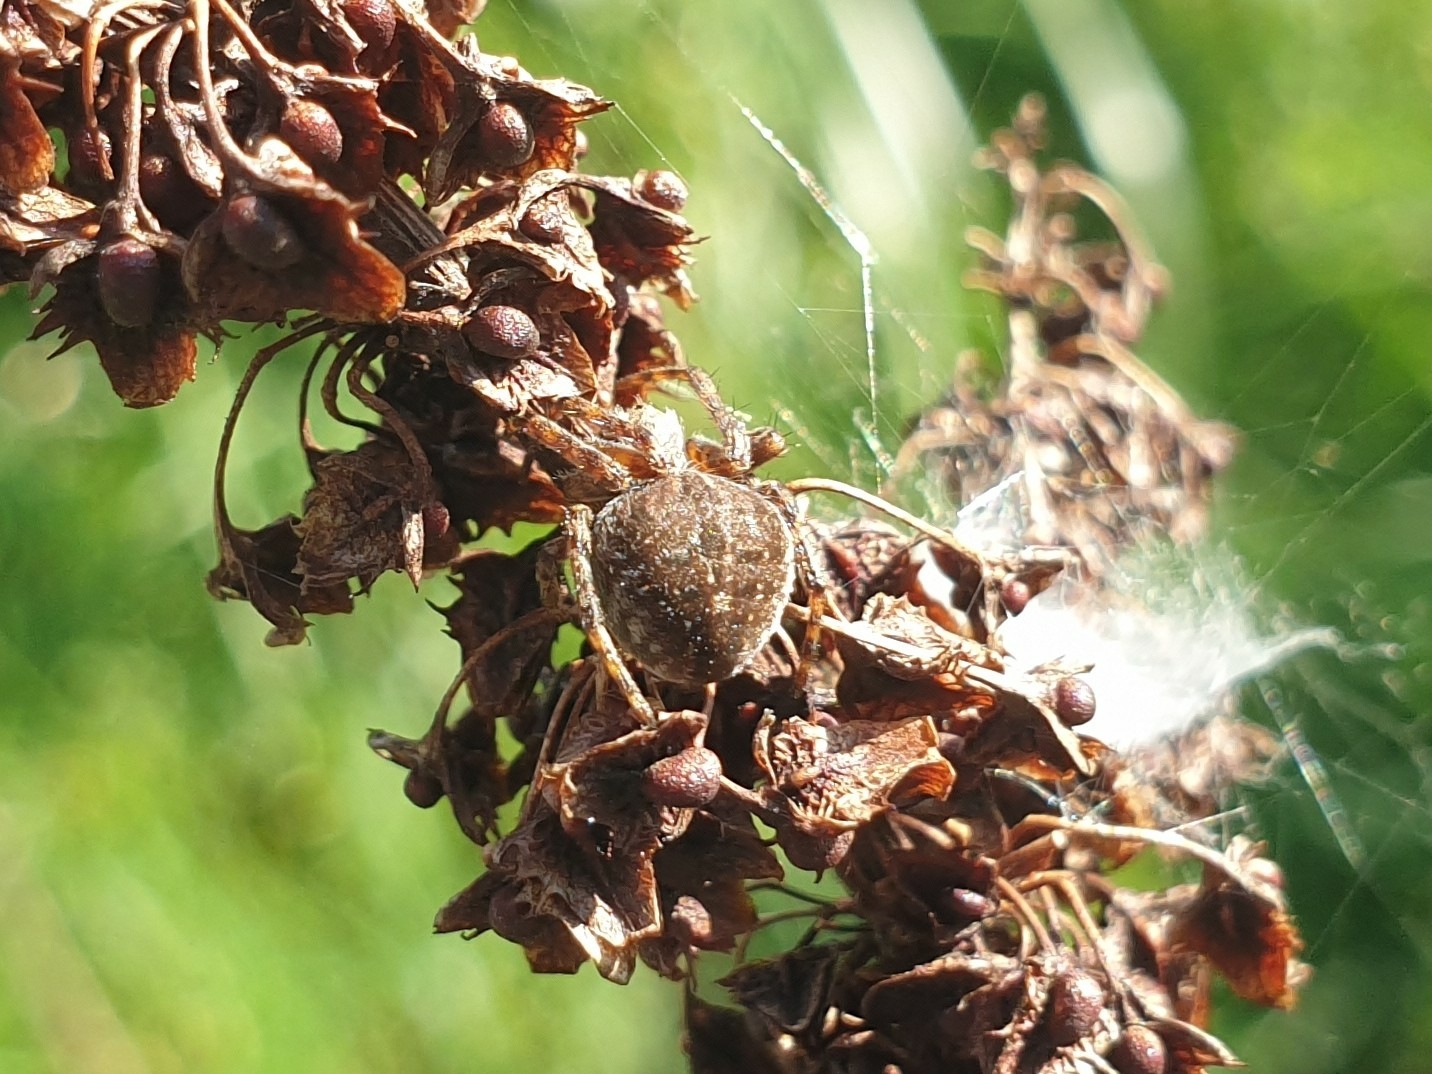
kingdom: Animalia
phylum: Arthropoda
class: Arachnida
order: Araneae
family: Araneidae
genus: Agalenatea
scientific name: Agalenatea redii
